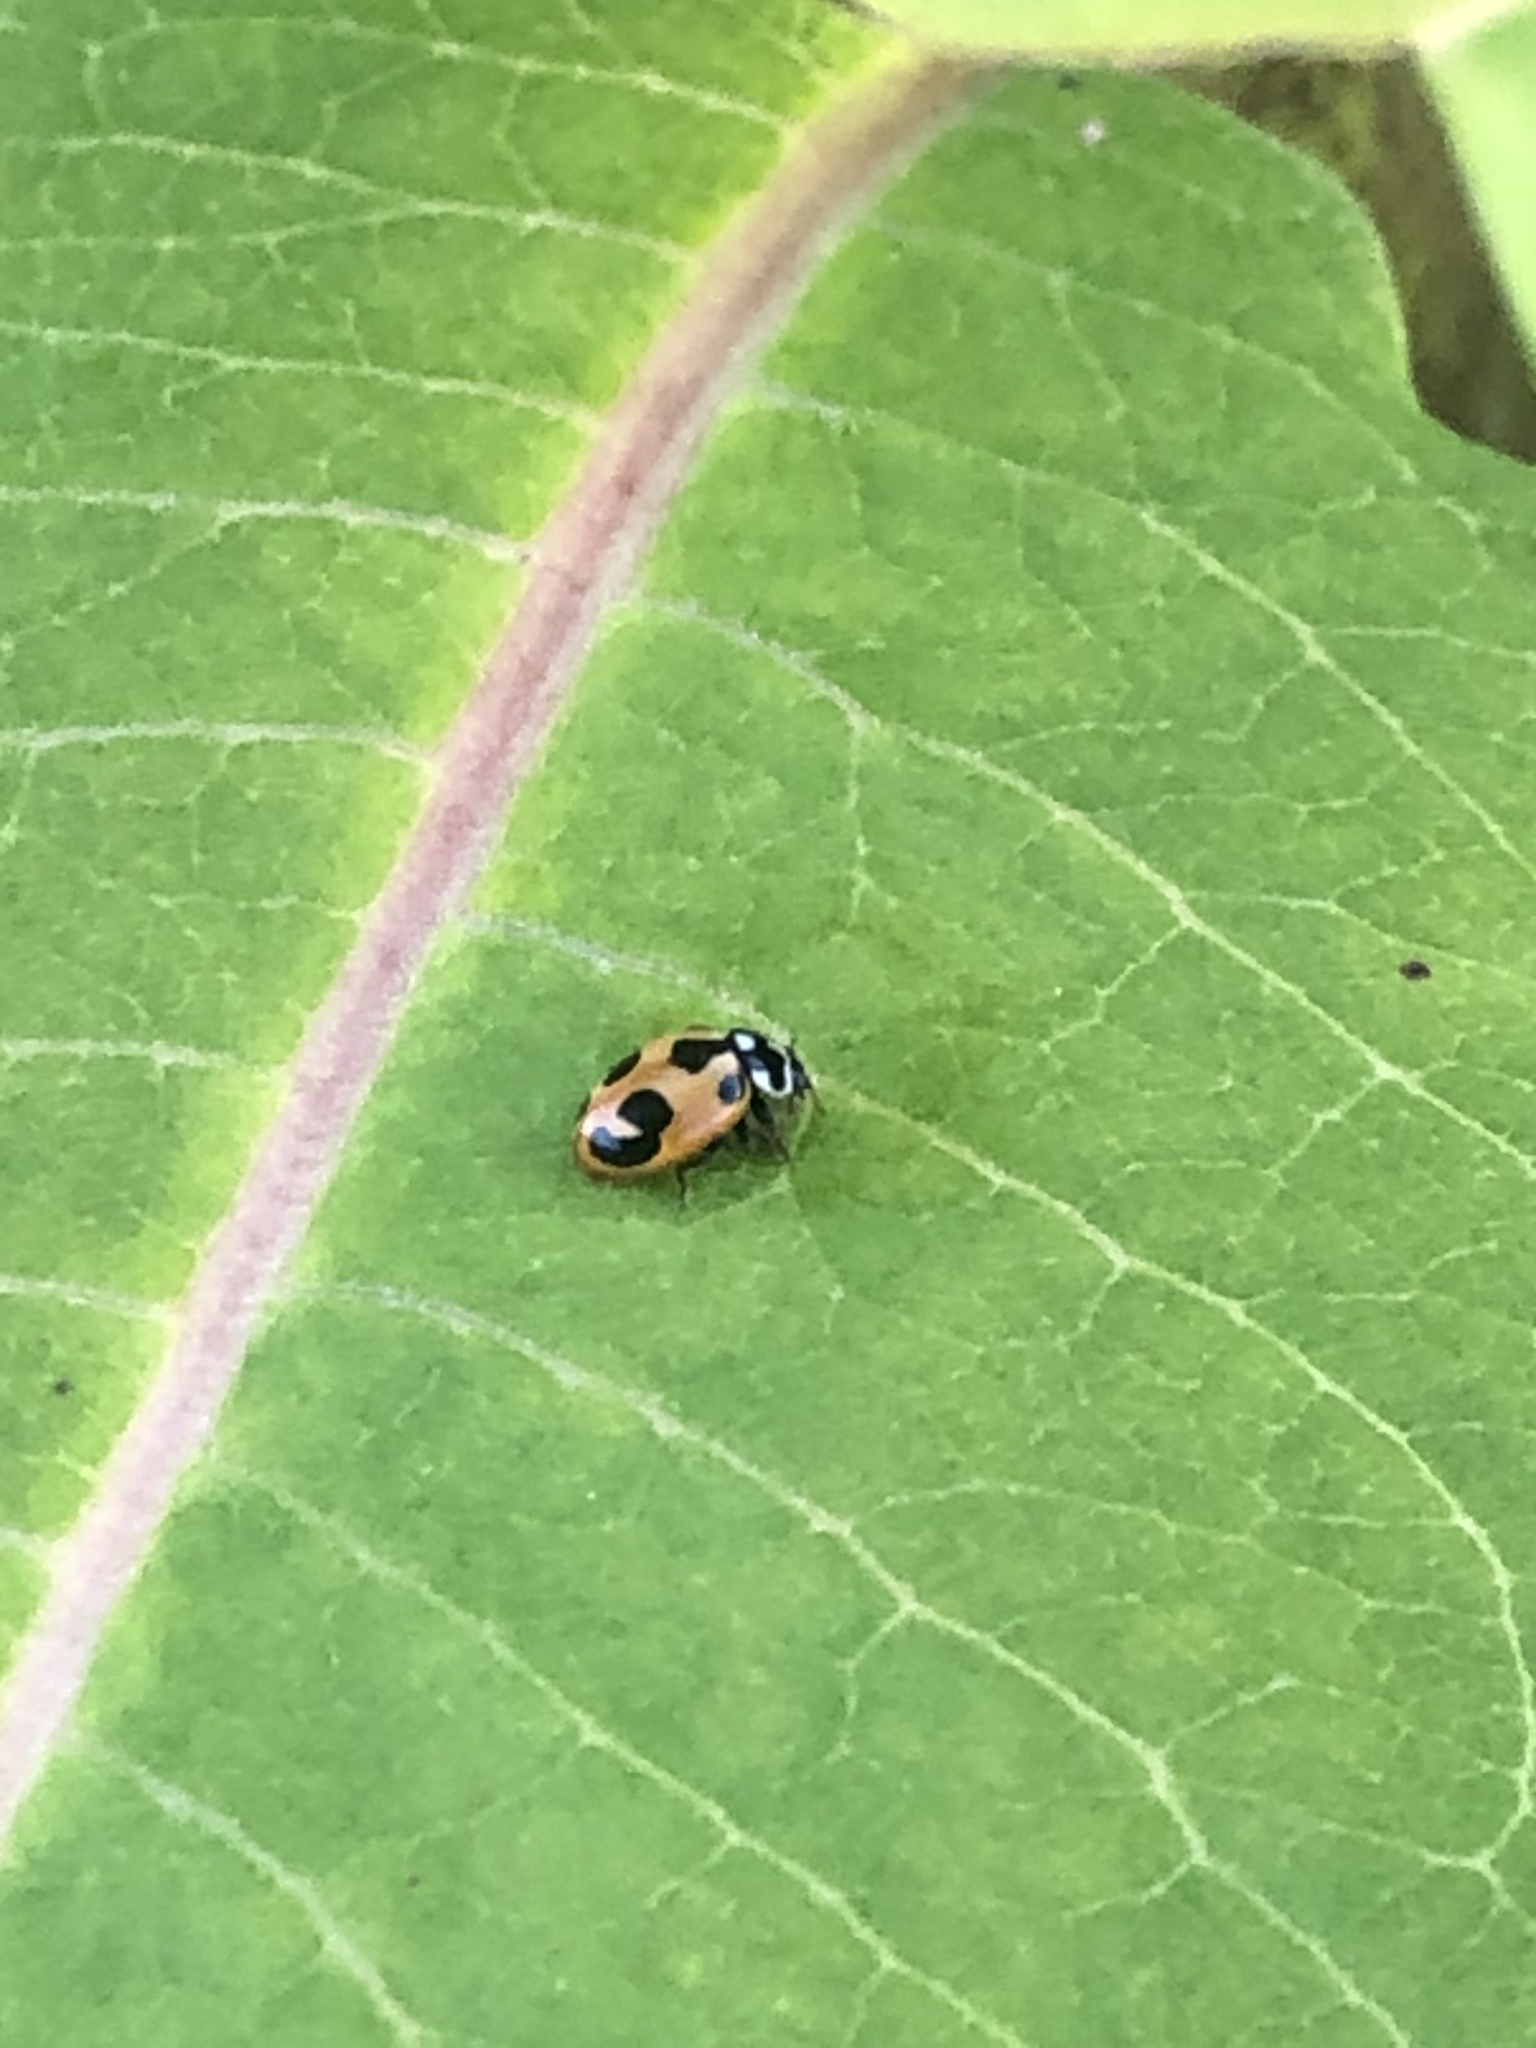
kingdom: Animalia
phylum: Arthropoda
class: Insecta
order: Coleoptera
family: Coccinellidae
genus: Hippodamia
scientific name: Hippodamia parenthesis
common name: Parenthesis lady beetle
